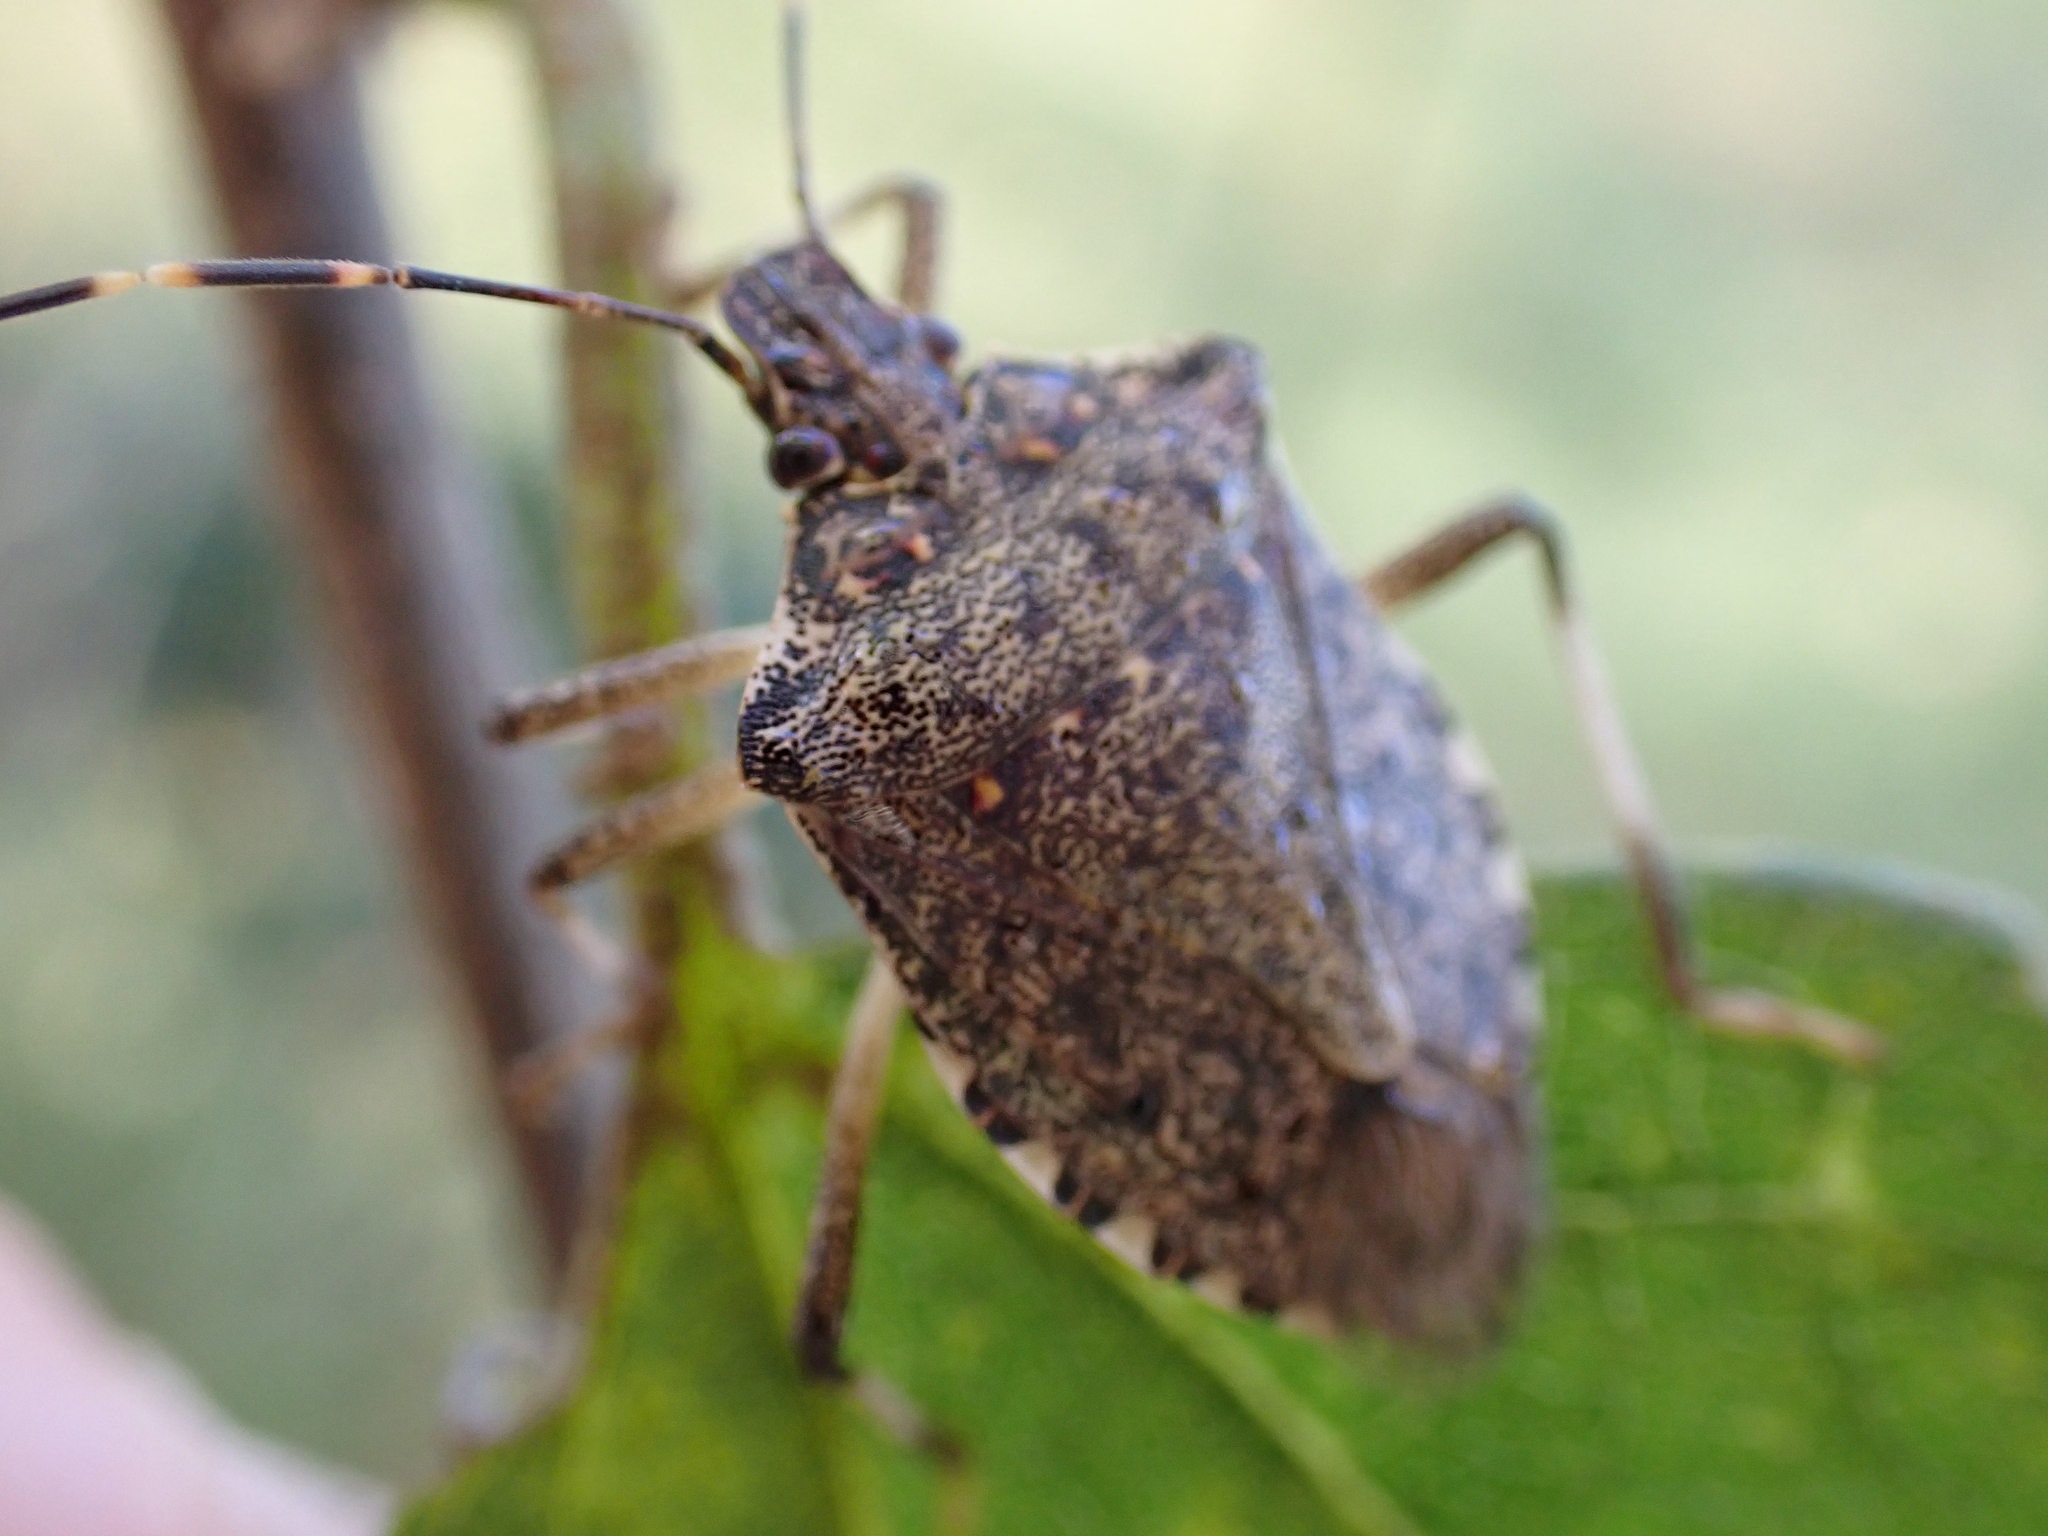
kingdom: Animalia
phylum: Arthropoda
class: Insecta
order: Hemiptera
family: Pentatomidae
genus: Halyomorpha
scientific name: Halyomorpha halys
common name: Brown marmorated stink bug
